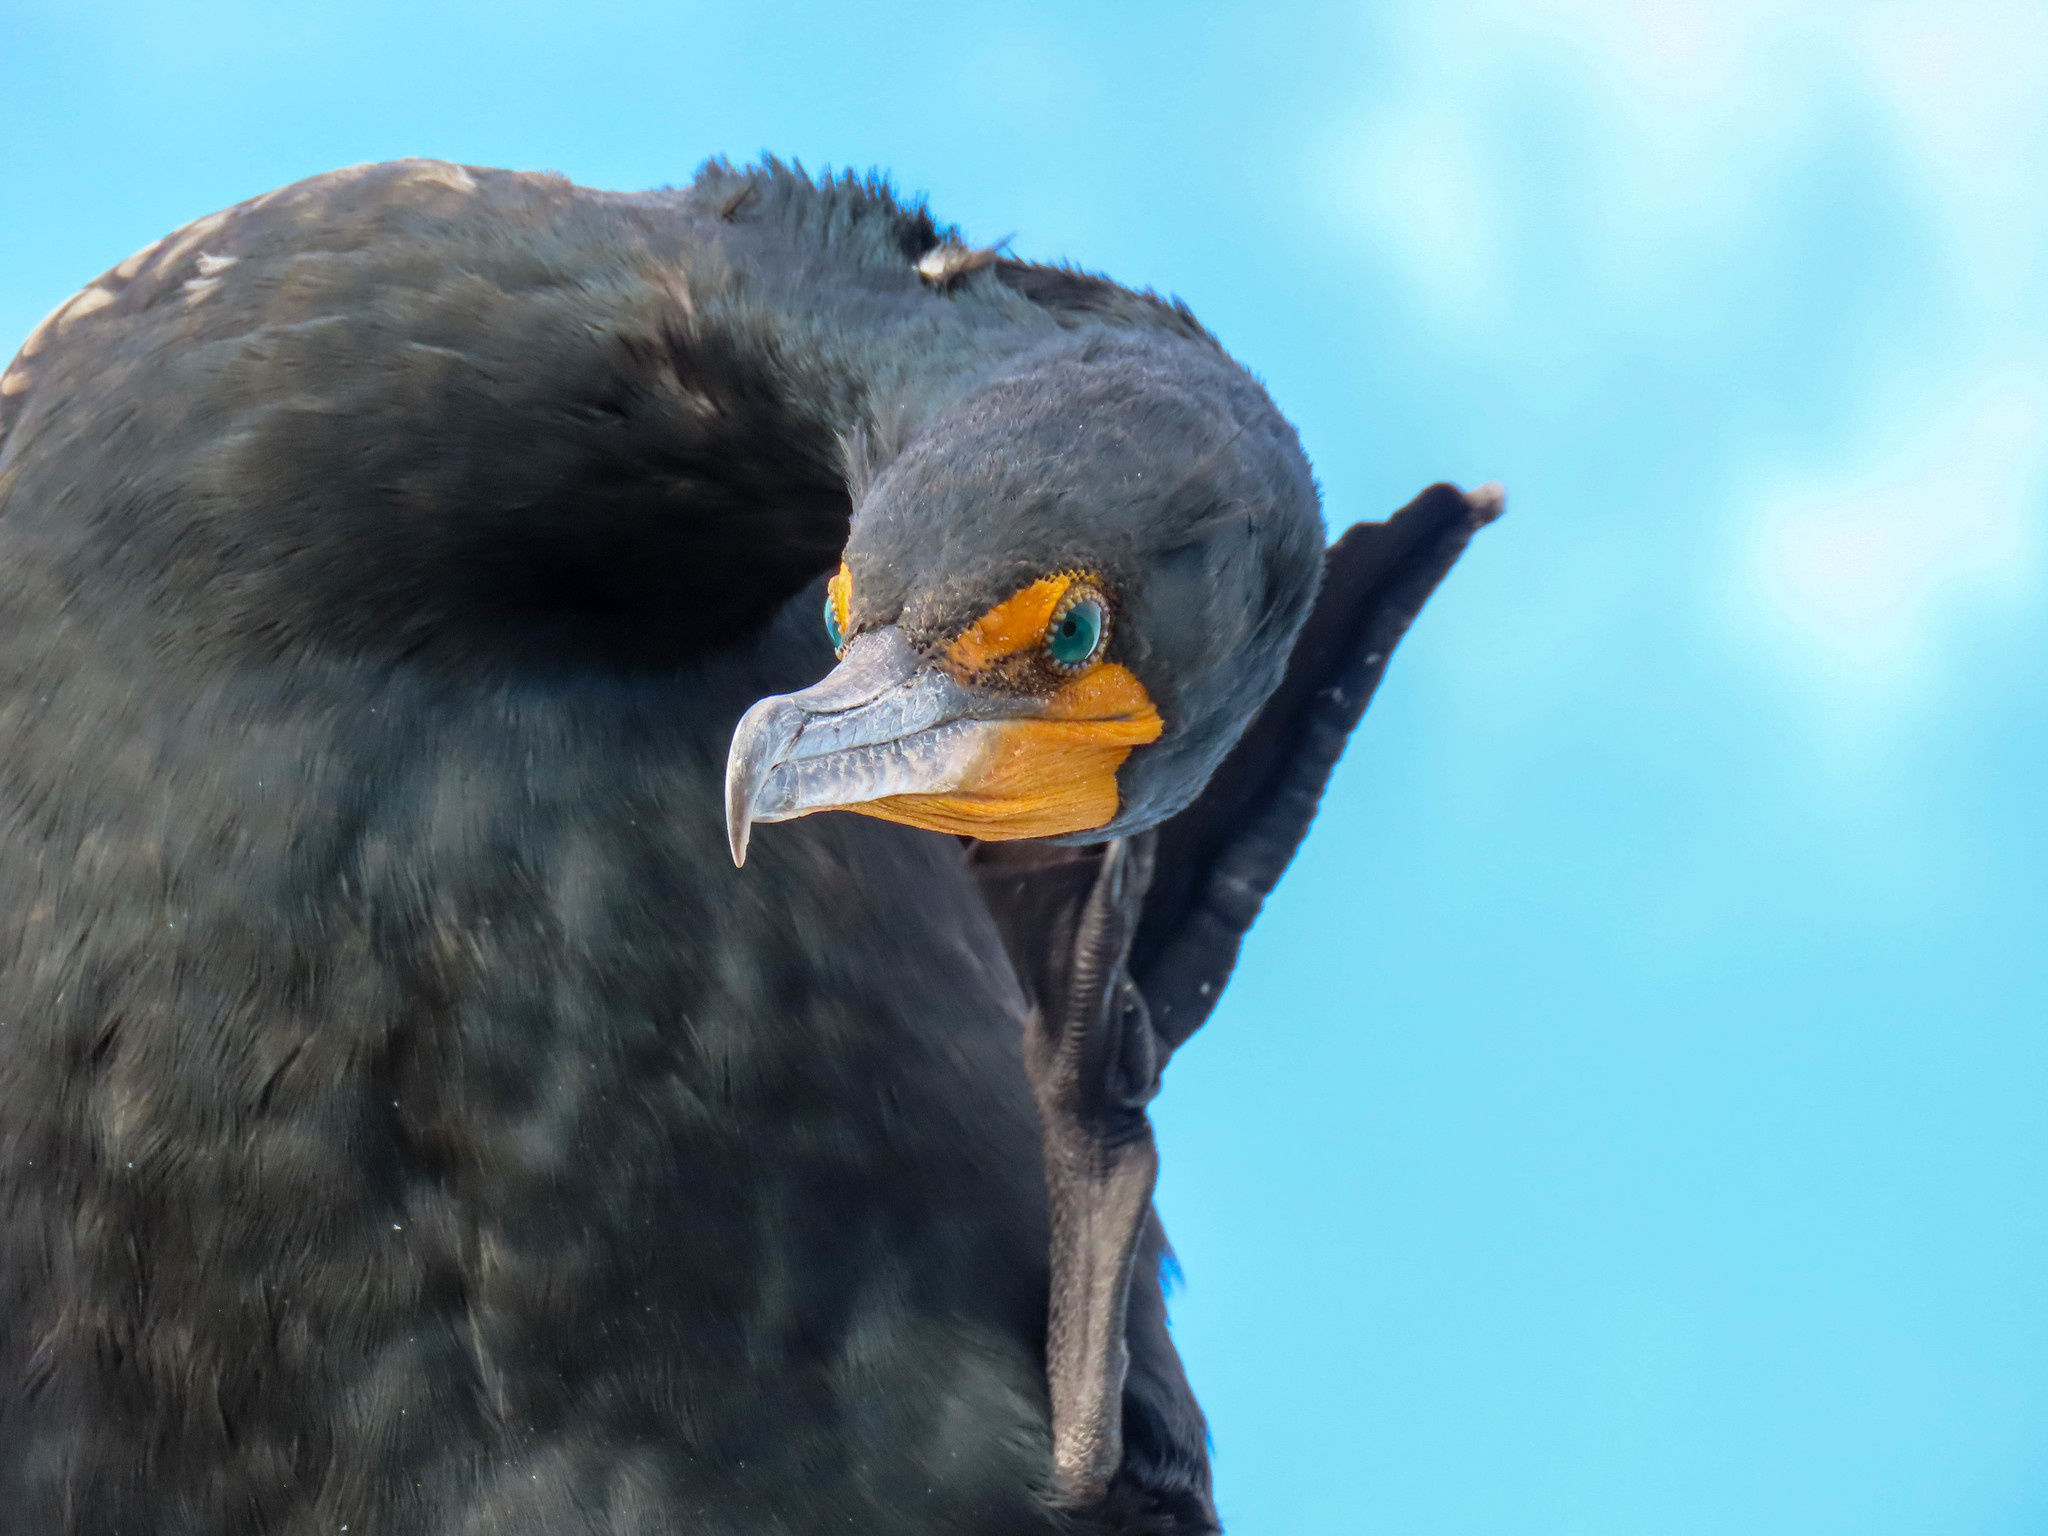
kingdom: Animalia
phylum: Chordata
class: Aves
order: Suliformes
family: Phalacrocoracidae
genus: Phalacrocorax
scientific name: Phalacrocorax auritus
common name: Double-crested cormorant
